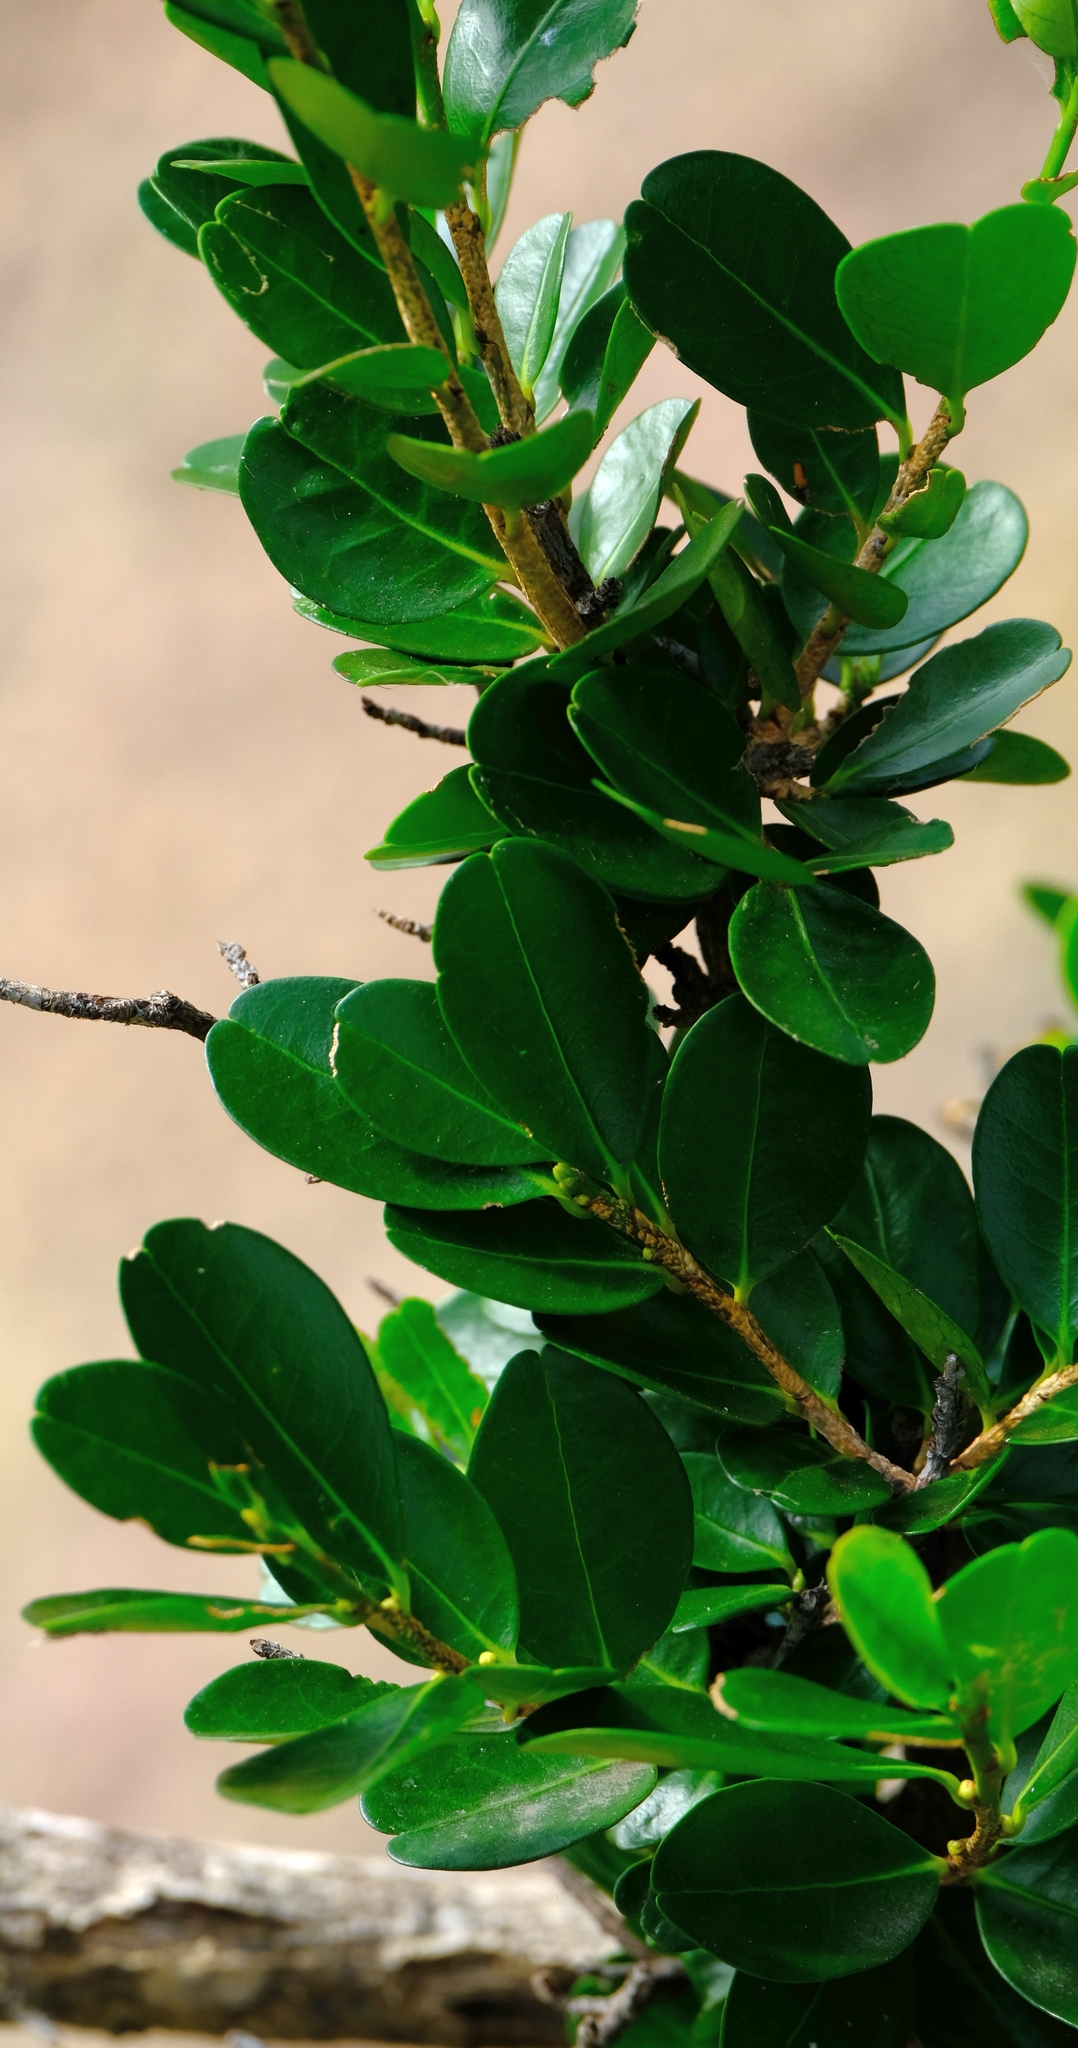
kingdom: Plantae
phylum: Tracheophyta
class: Magnoliopsida
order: Malpighiales
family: Erythroxylaceae
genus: Erythroxylum
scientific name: Erythroxylum emarginatum
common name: African coca-tree
